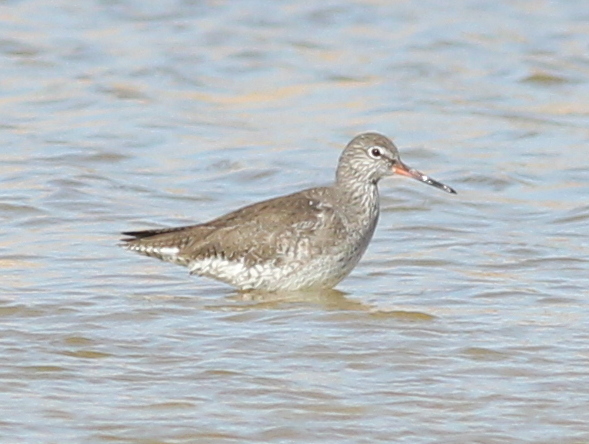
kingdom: Animalia
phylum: Chordata
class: Aves
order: Charadriiformes
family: Scolopacidae
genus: Tringa
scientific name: Tringa totanus
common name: Common redshank
